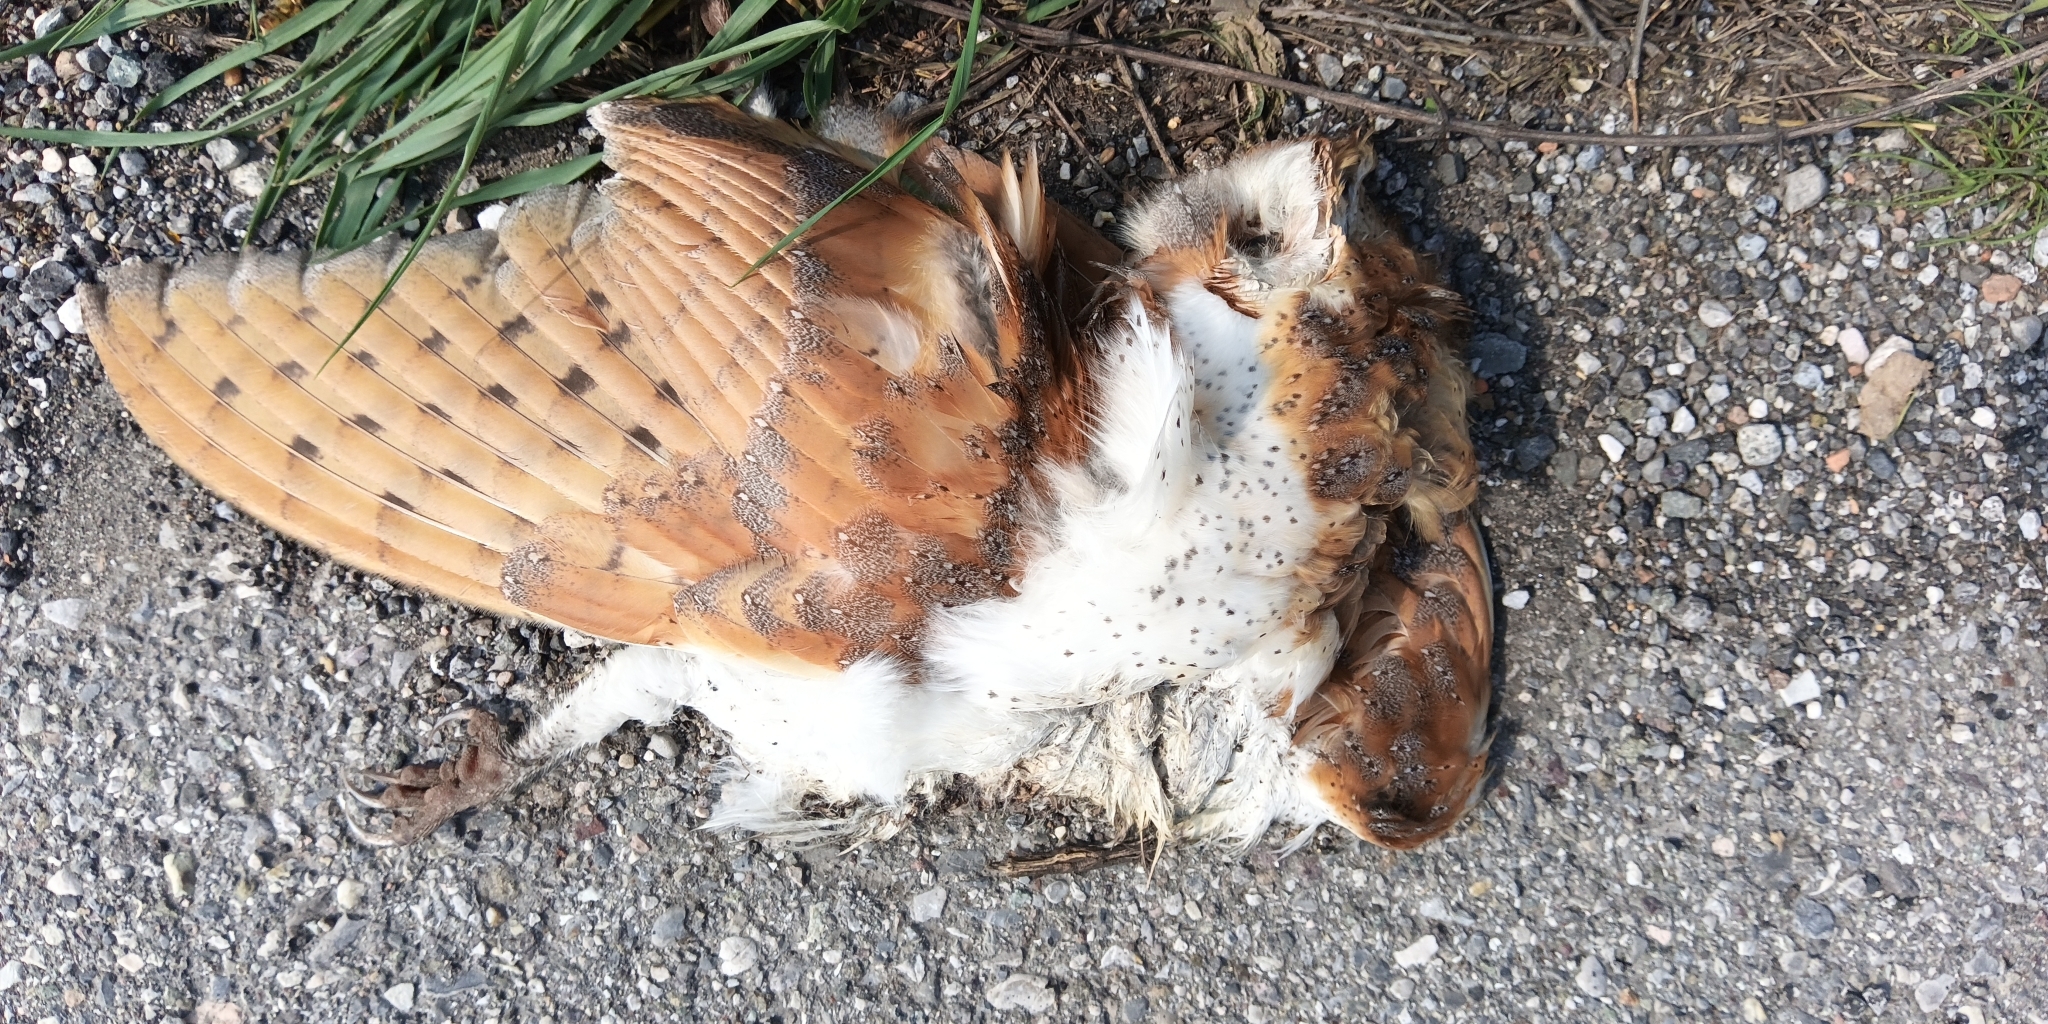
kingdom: Animalia
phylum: Chordata
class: Aves
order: Strigiformes
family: Tytonidae
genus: Tyto
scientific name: Tyto alba
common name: Barn owl
